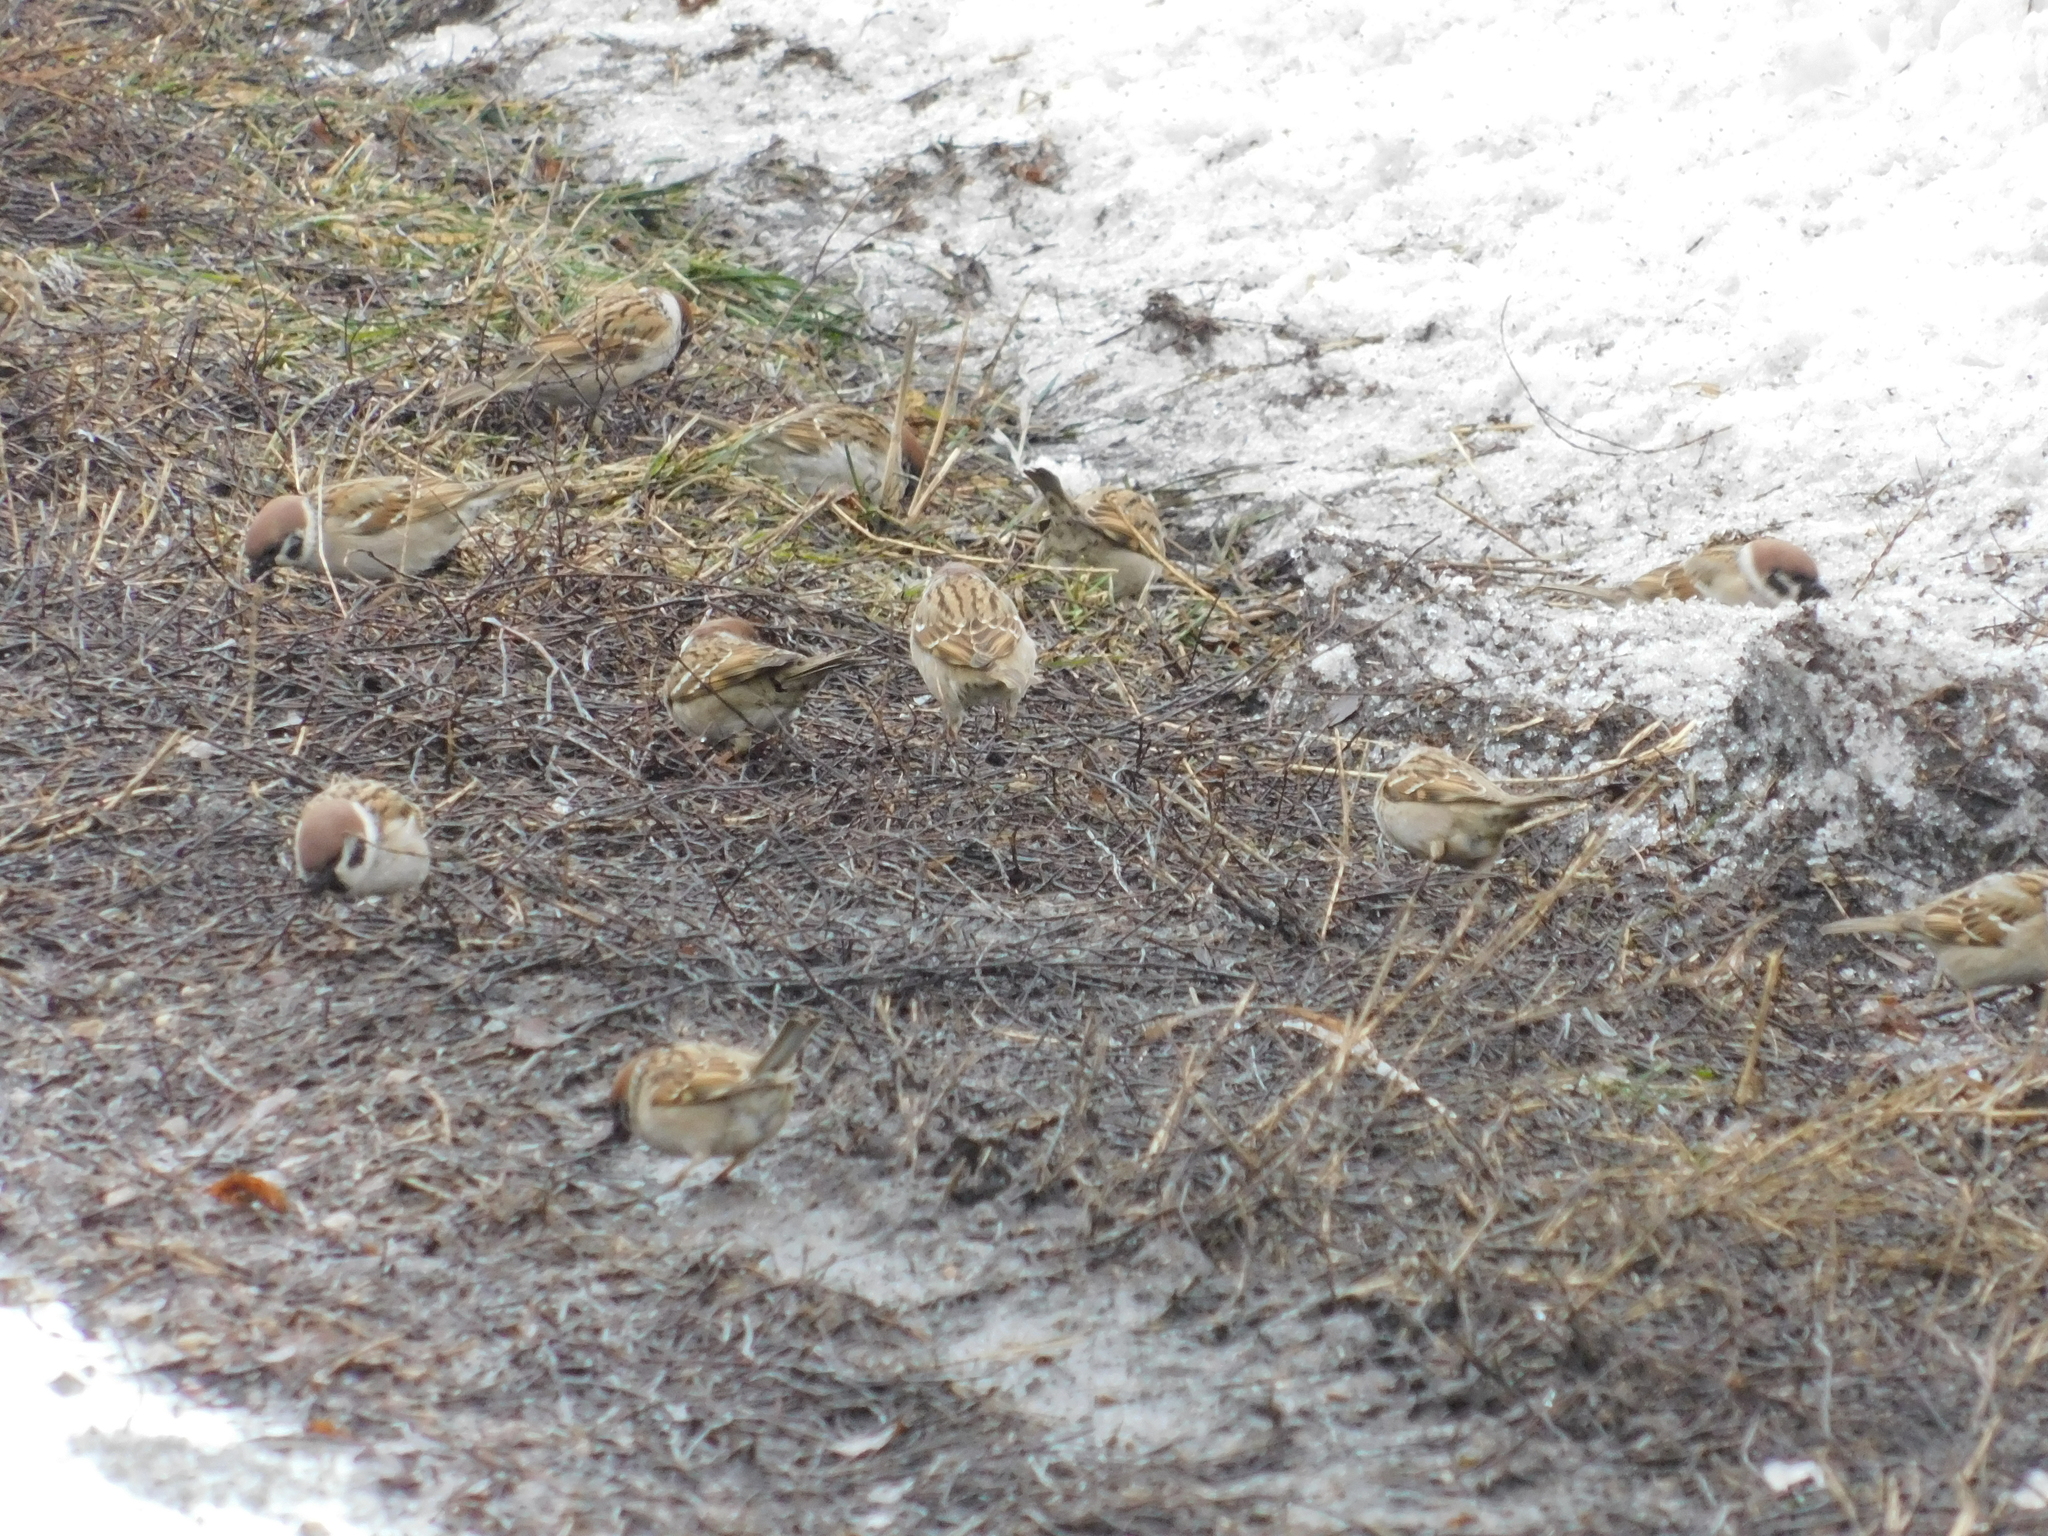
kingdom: Animalia
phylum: Chordata
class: Aves
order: Passeriformes
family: Passeridae
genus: Passer
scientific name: Passer montanus
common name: Eurasian tree sparrow
